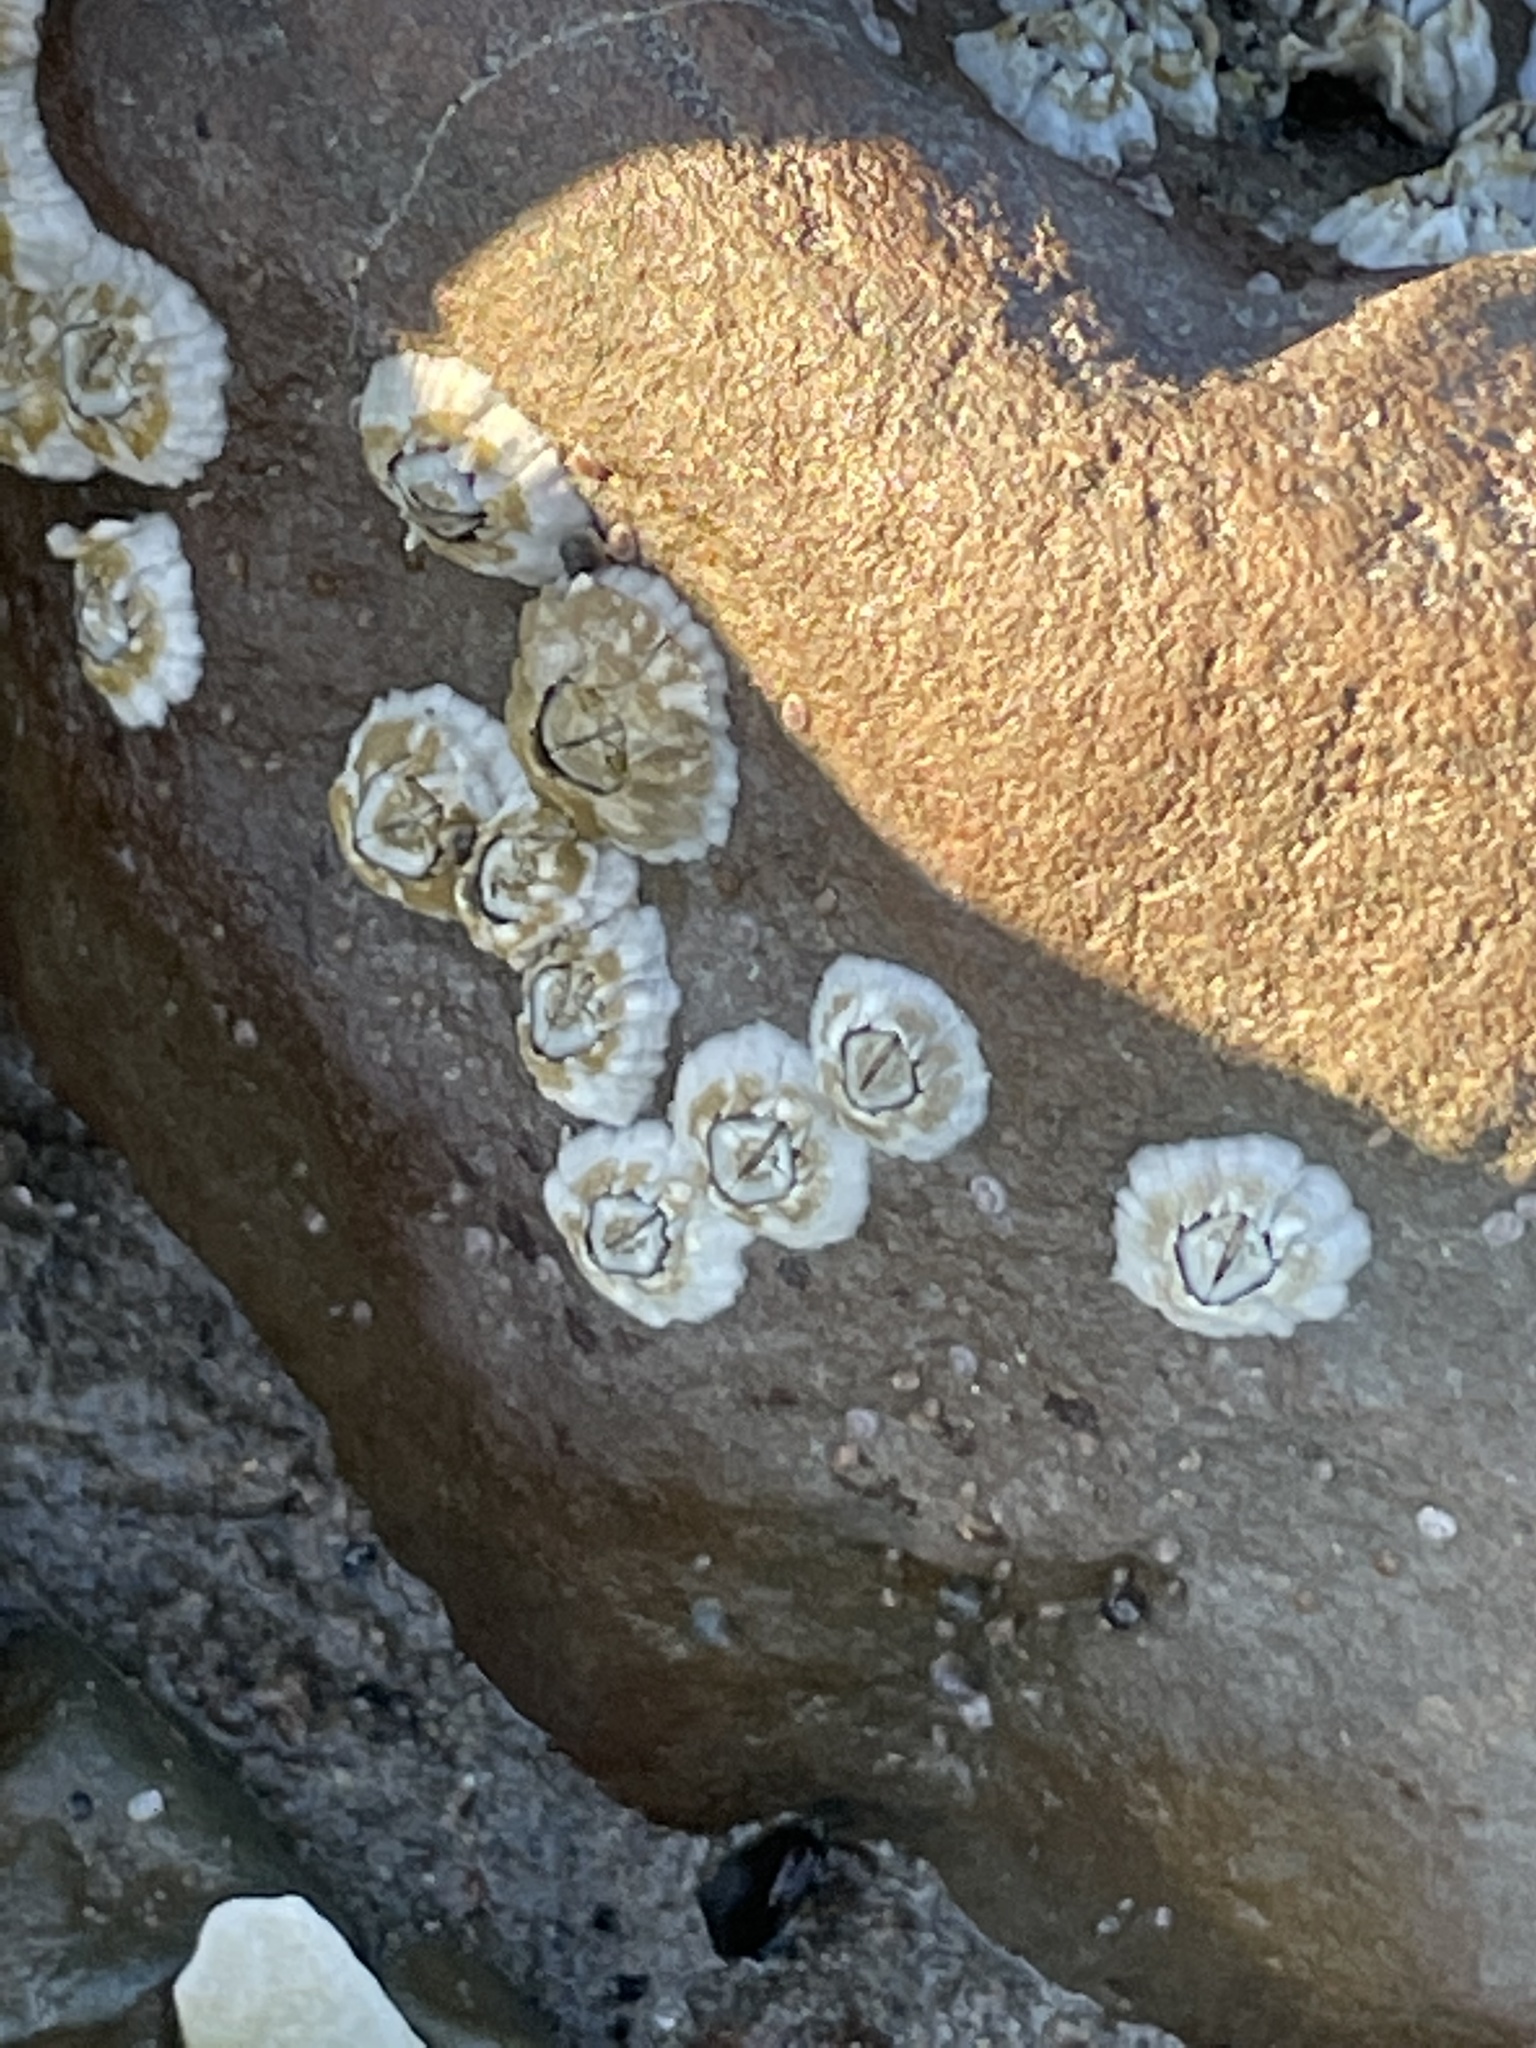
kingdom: Animalia
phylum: Arthropoda
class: Maxillopoda
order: Sessilia
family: Archaeobalanidae
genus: Semibalanus
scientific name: Semibalanus balanoides
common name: Acorn barnacle
